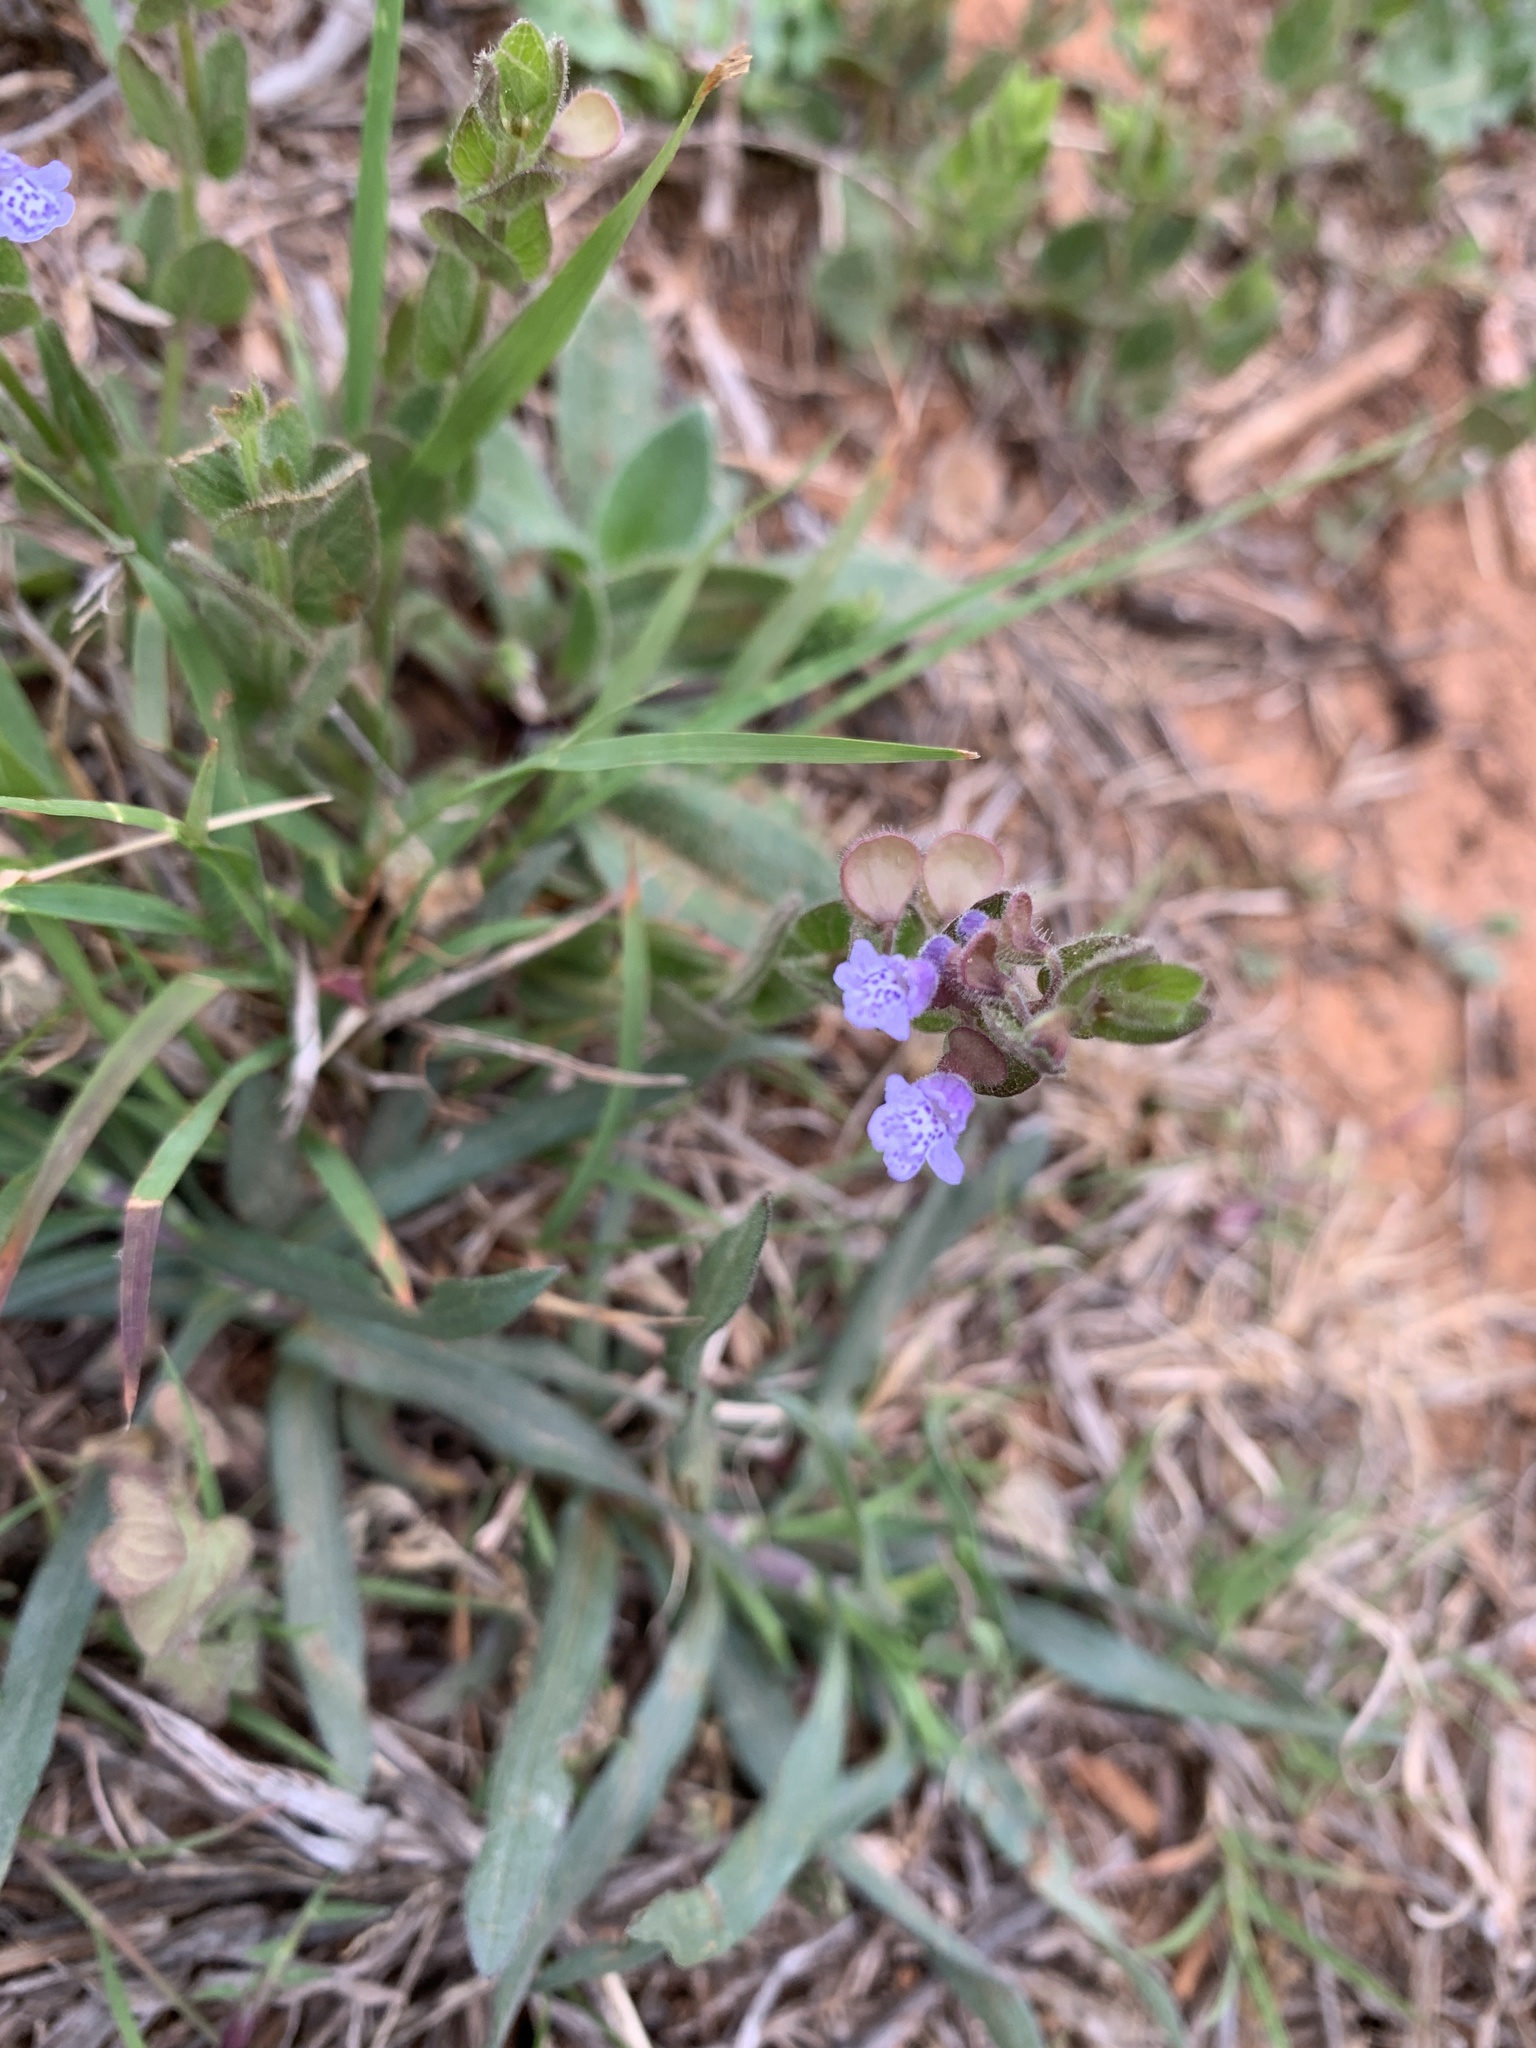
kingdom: Plantae
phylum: Tracheophyta
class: Magnoliopsida
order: Lamiales
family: Lamiaceae
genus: Scutellaria
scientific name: Scutellaria parvula
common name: Little scullcap
